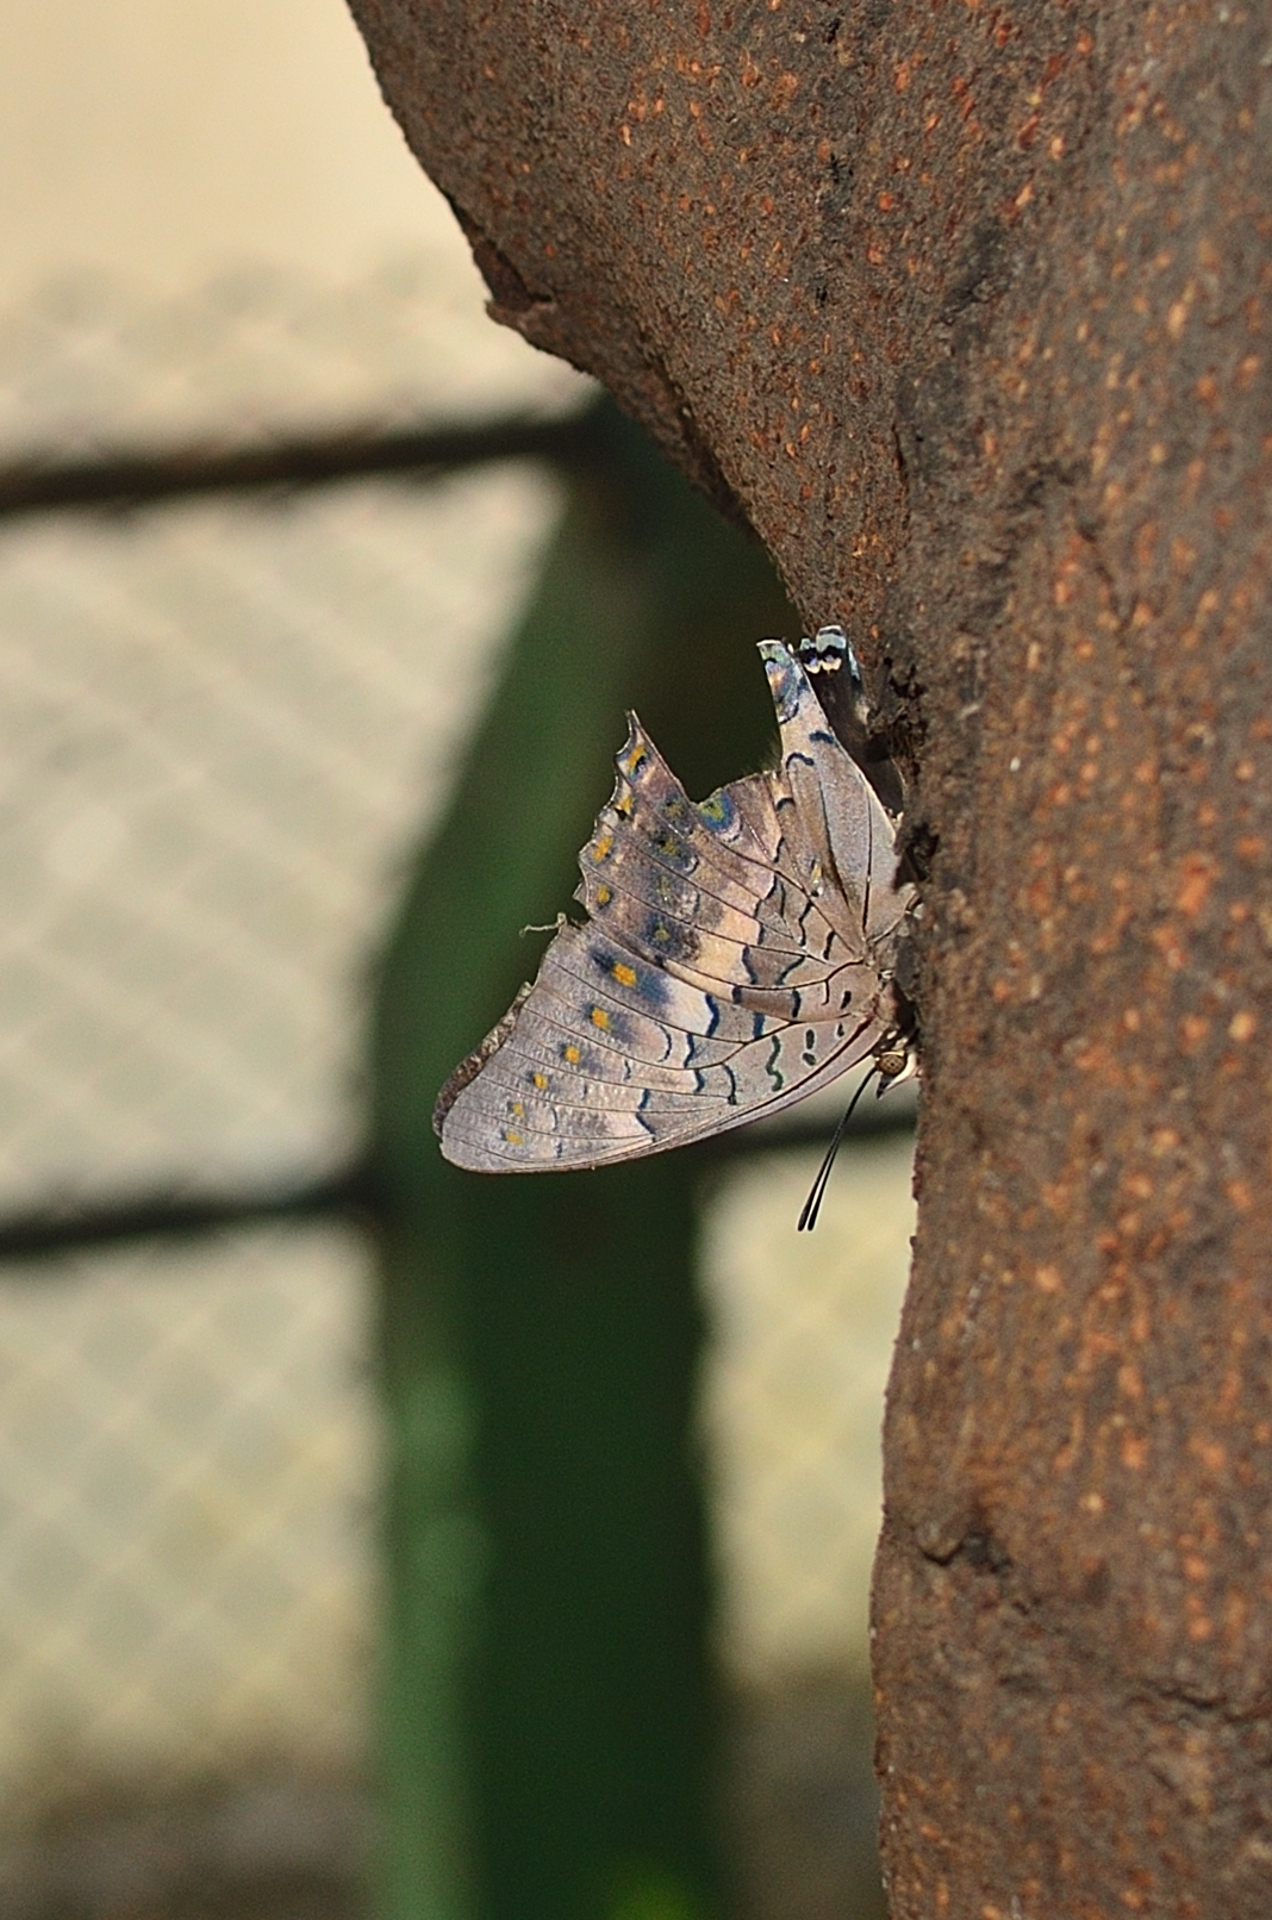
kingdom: Animalia
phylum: Arthropoda
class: Insecta
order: Lepidoptera
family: Nymphalidae
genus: Charaxes
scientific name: Charaxes solon
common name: Black rajah
